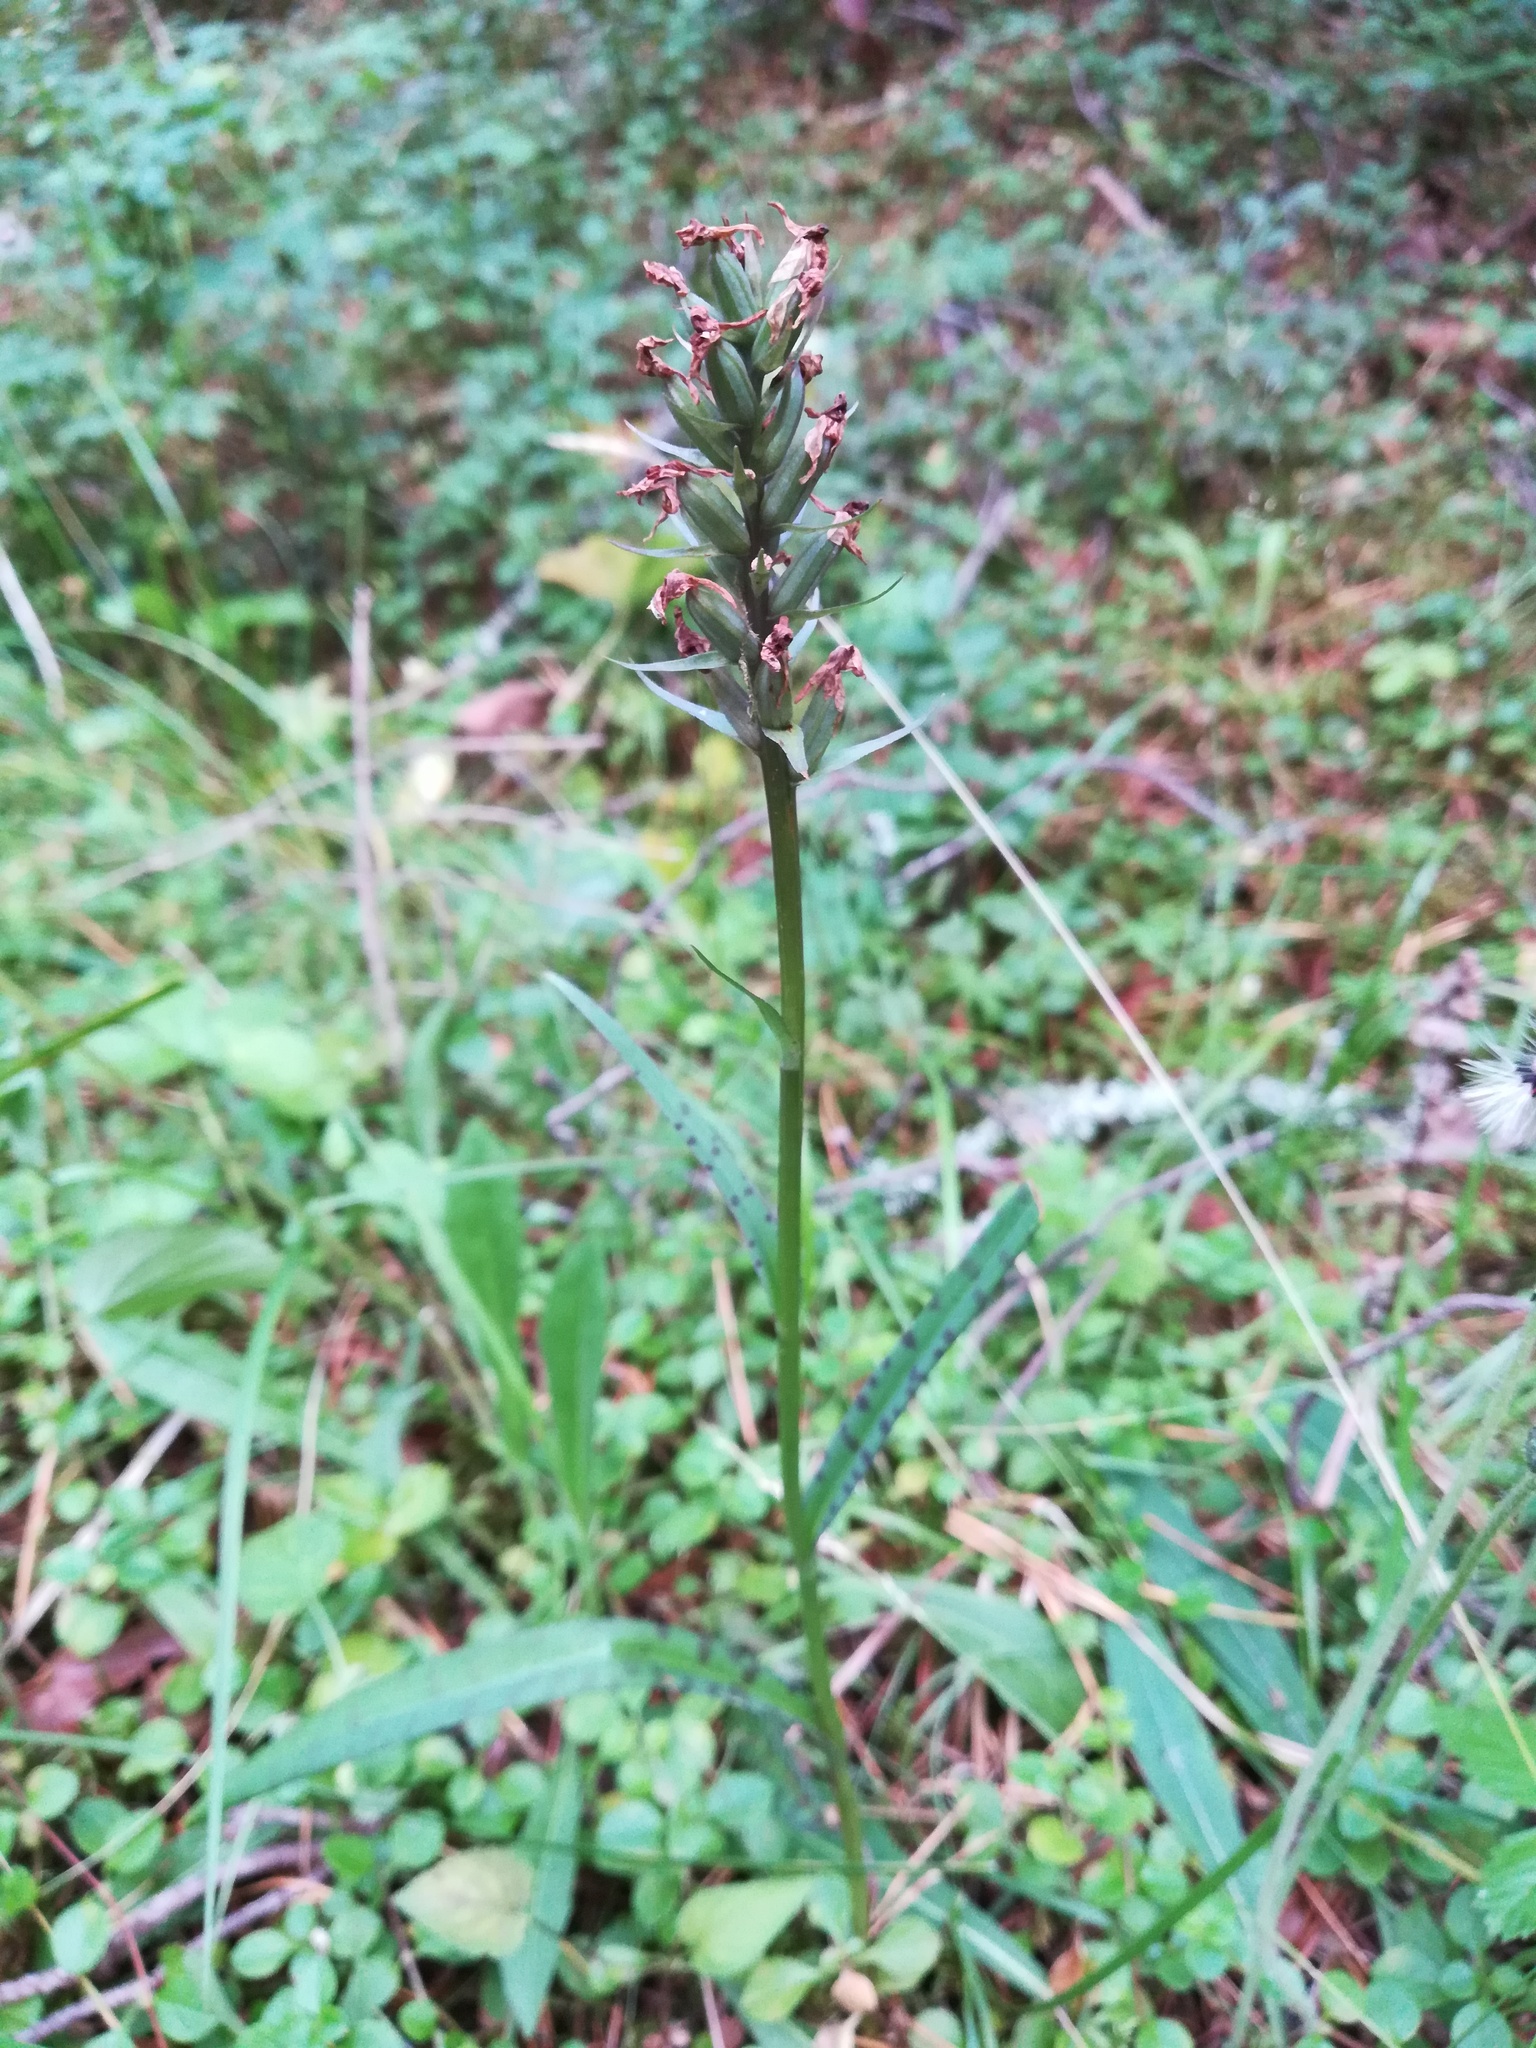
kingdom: Plantae
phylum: Tracheophyta
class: Liliopsida
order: Asparagales
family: Orchidaceae
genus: Dactylorhiza
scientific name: Dactylorhiza maculata
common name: Heath spotted-orchid
